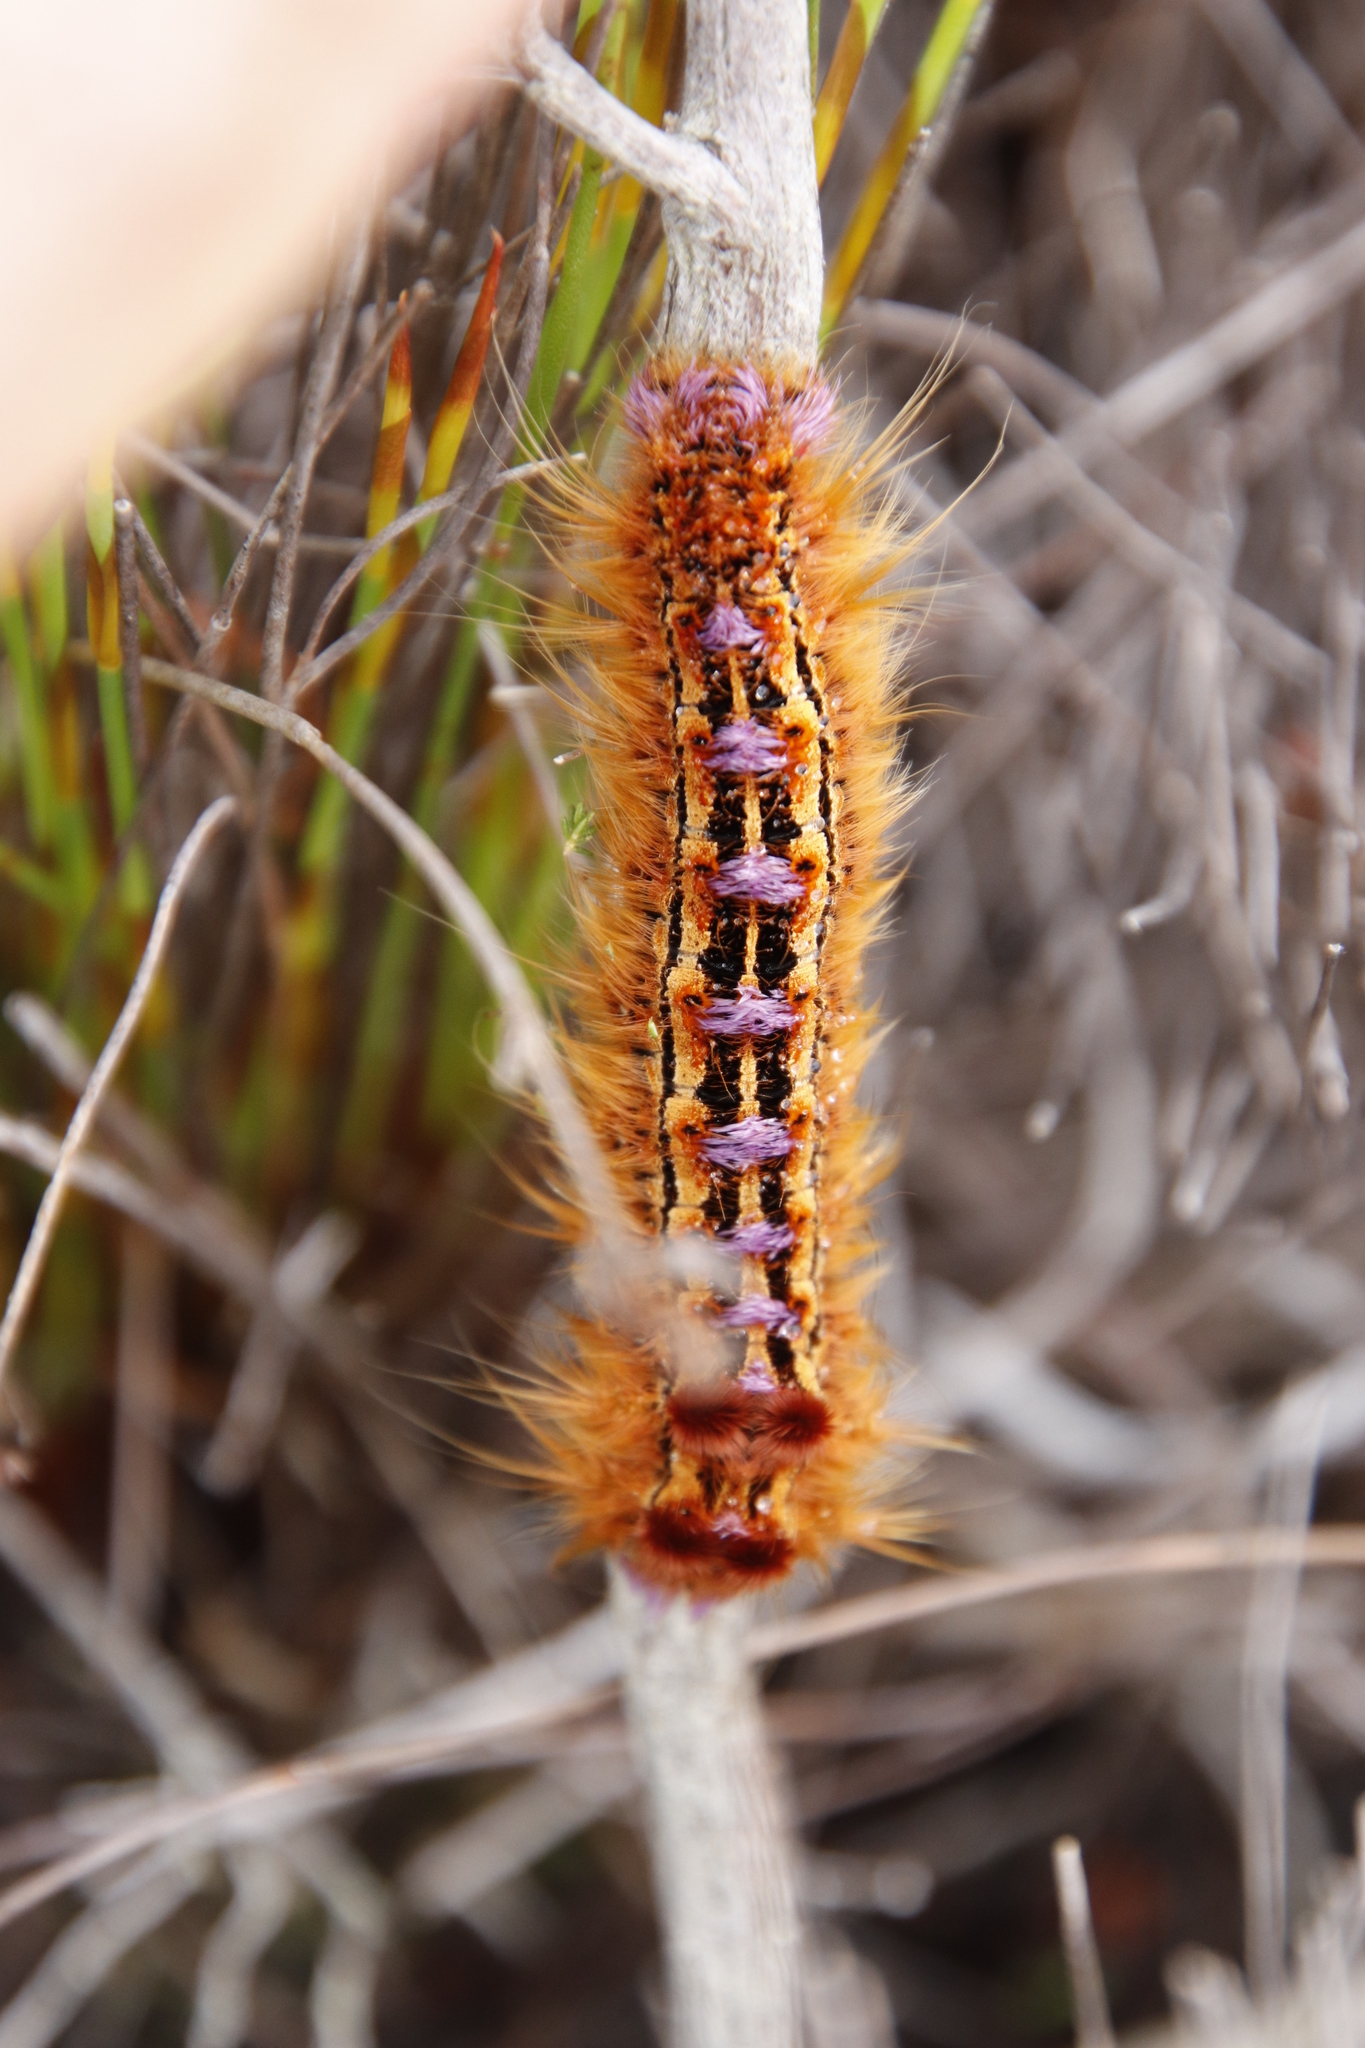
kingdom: Animalia
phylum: Arthropoda
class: Insecta
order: Lepidoptera
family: Lasiocampidae
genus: Eutricha
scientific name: Eutricha bifascia
